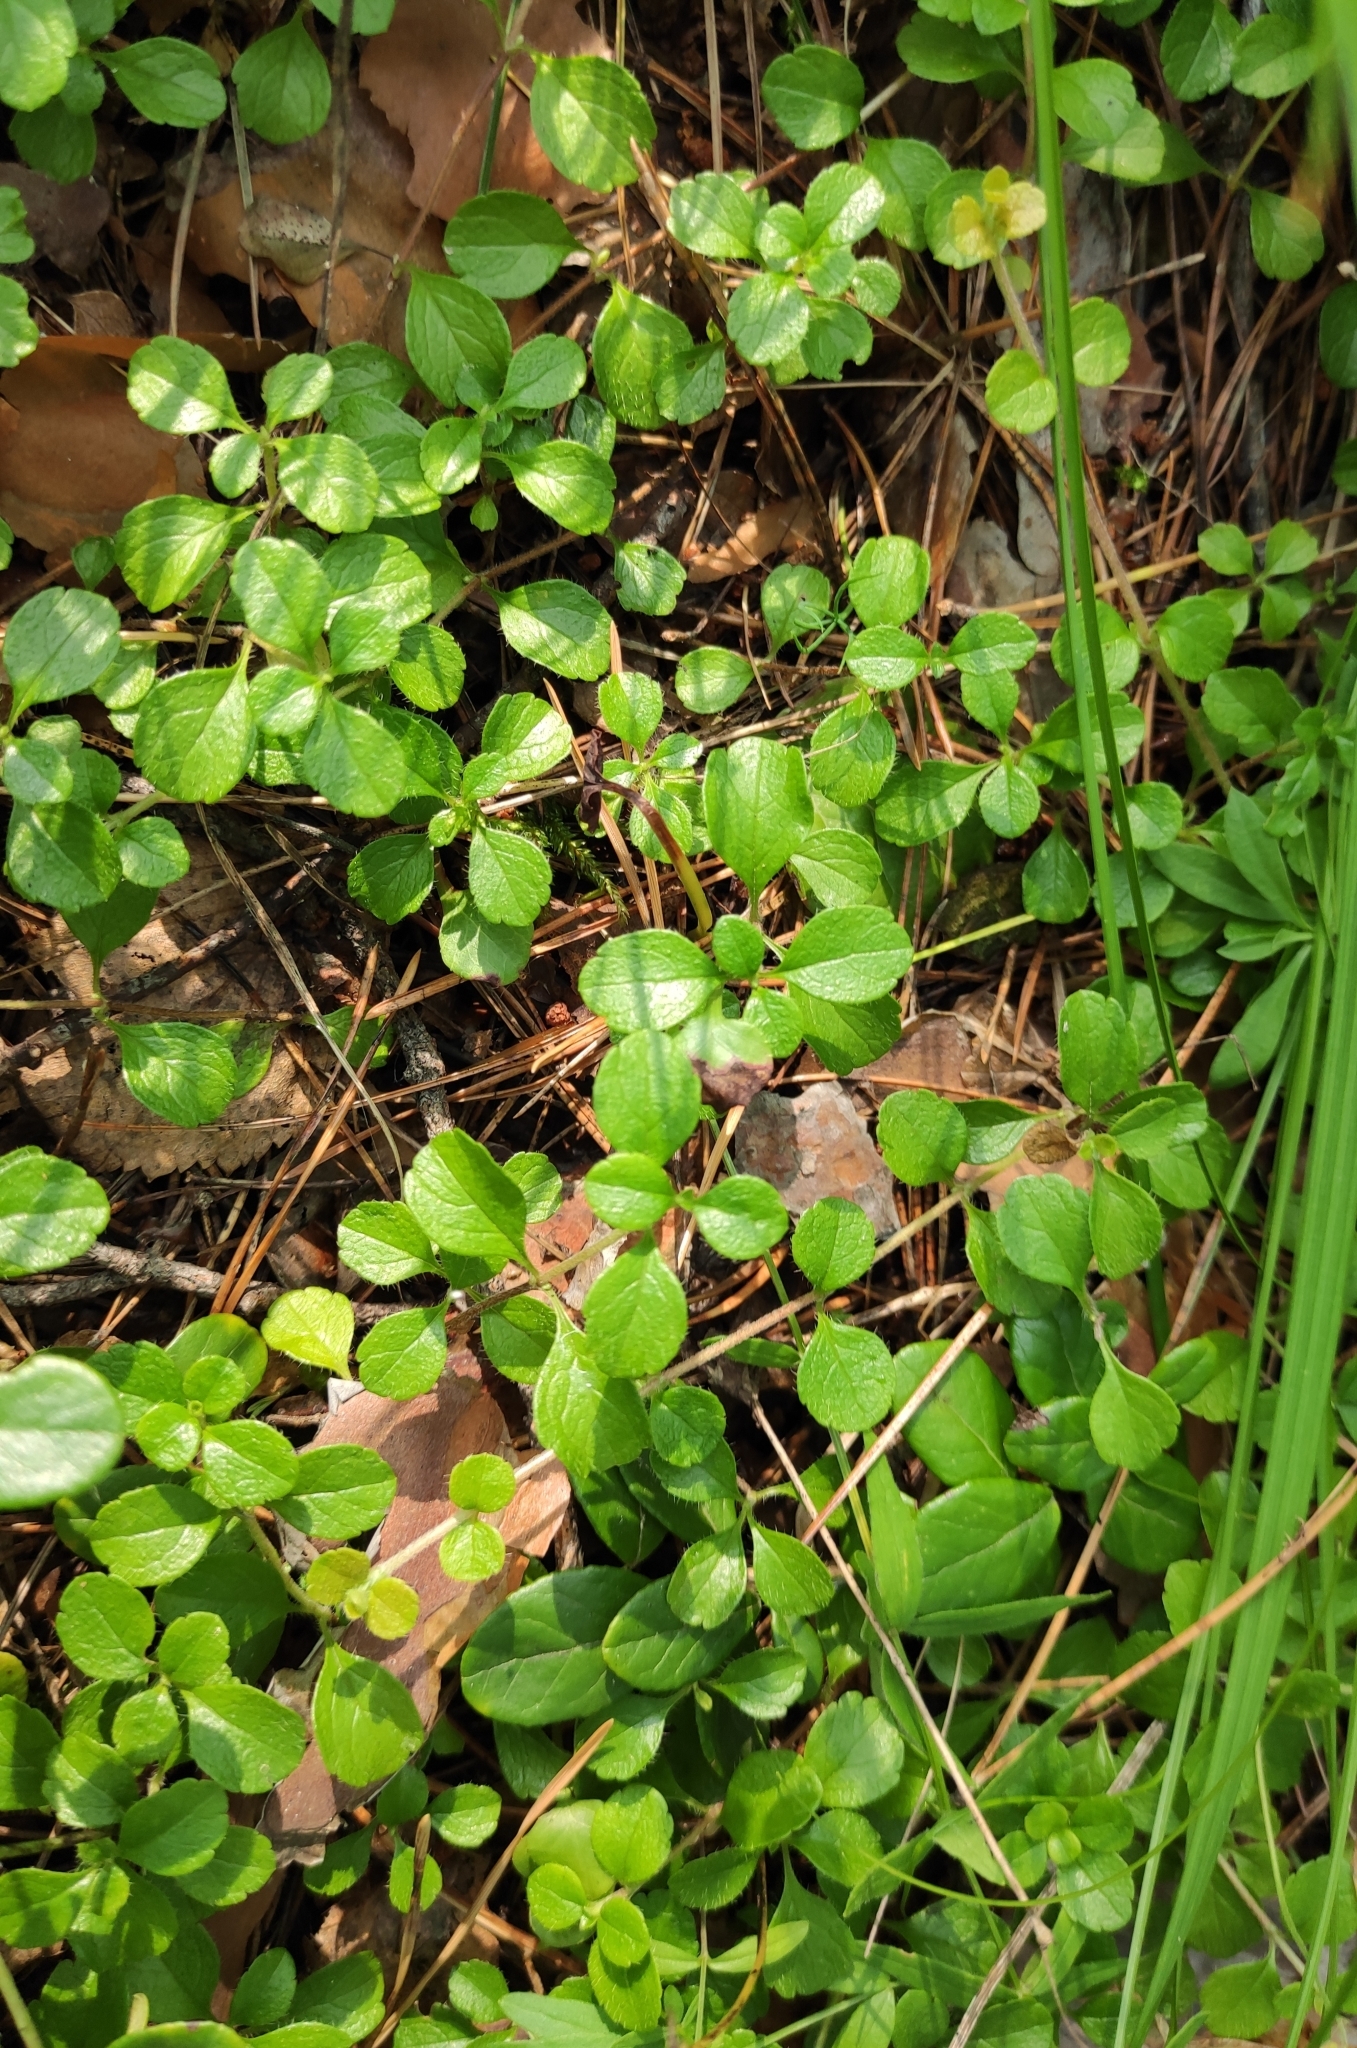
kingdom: Plantae
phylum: Tracheophyta
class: Magnoliopsida
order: Dipsacales
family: Caprifoliaceae
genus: Linnaea
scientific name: Linnaea borealis
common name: Twinflower
